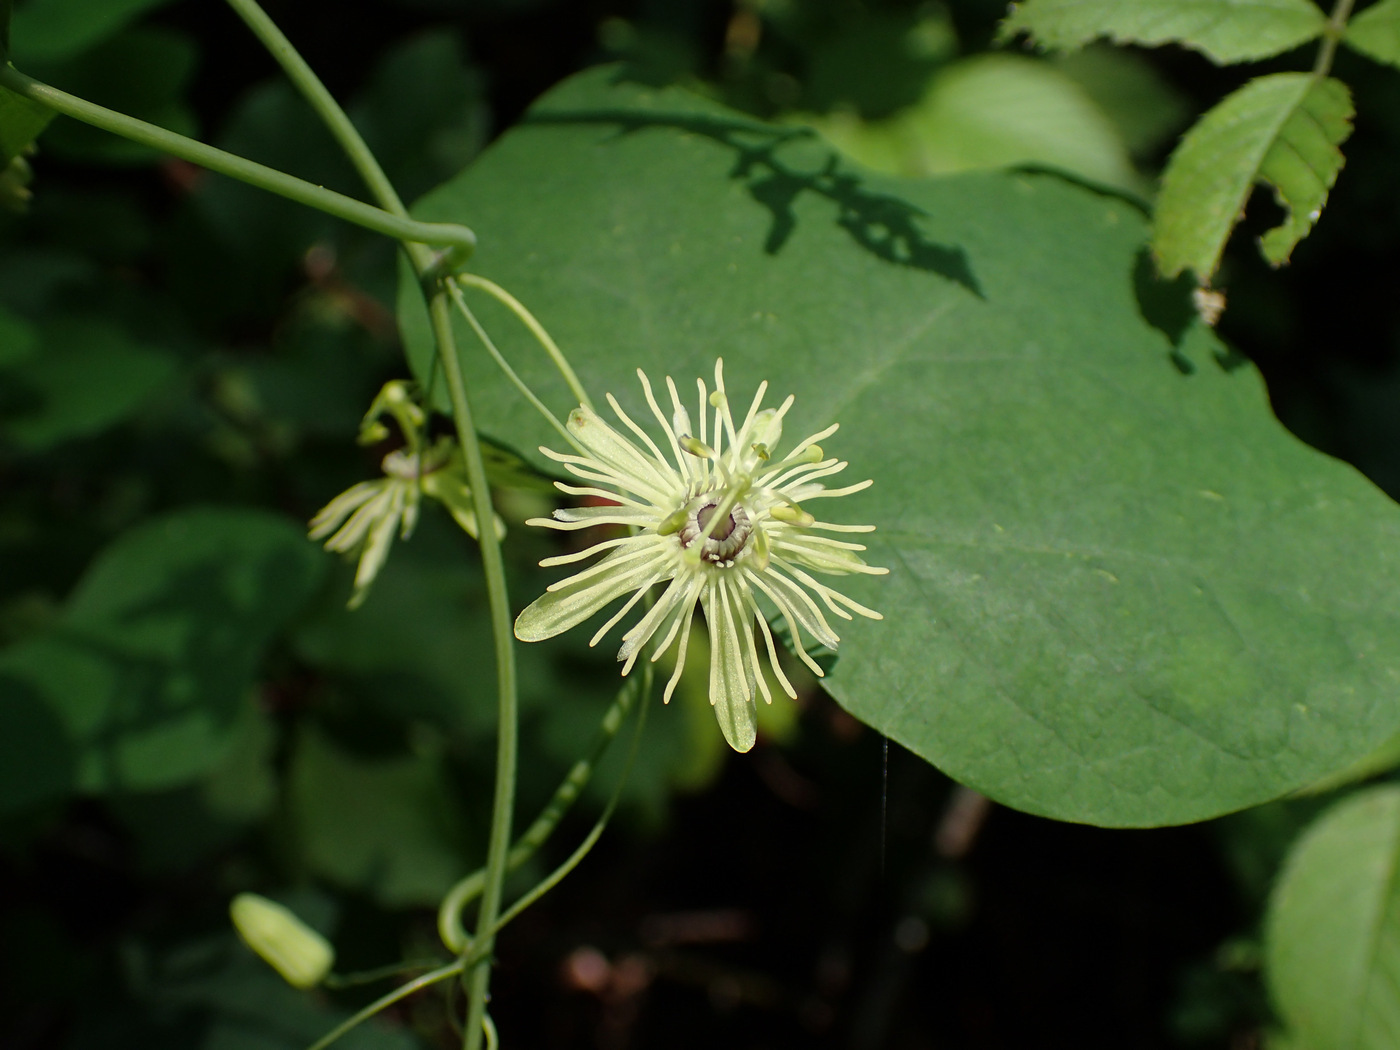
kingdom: Plantae
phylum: Tracheophyta
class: Magnoliopsida
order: Malpighiales
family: Passifloraceae
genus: Passiflora
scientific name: Passiflora lutea
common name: Yellow passionflower
